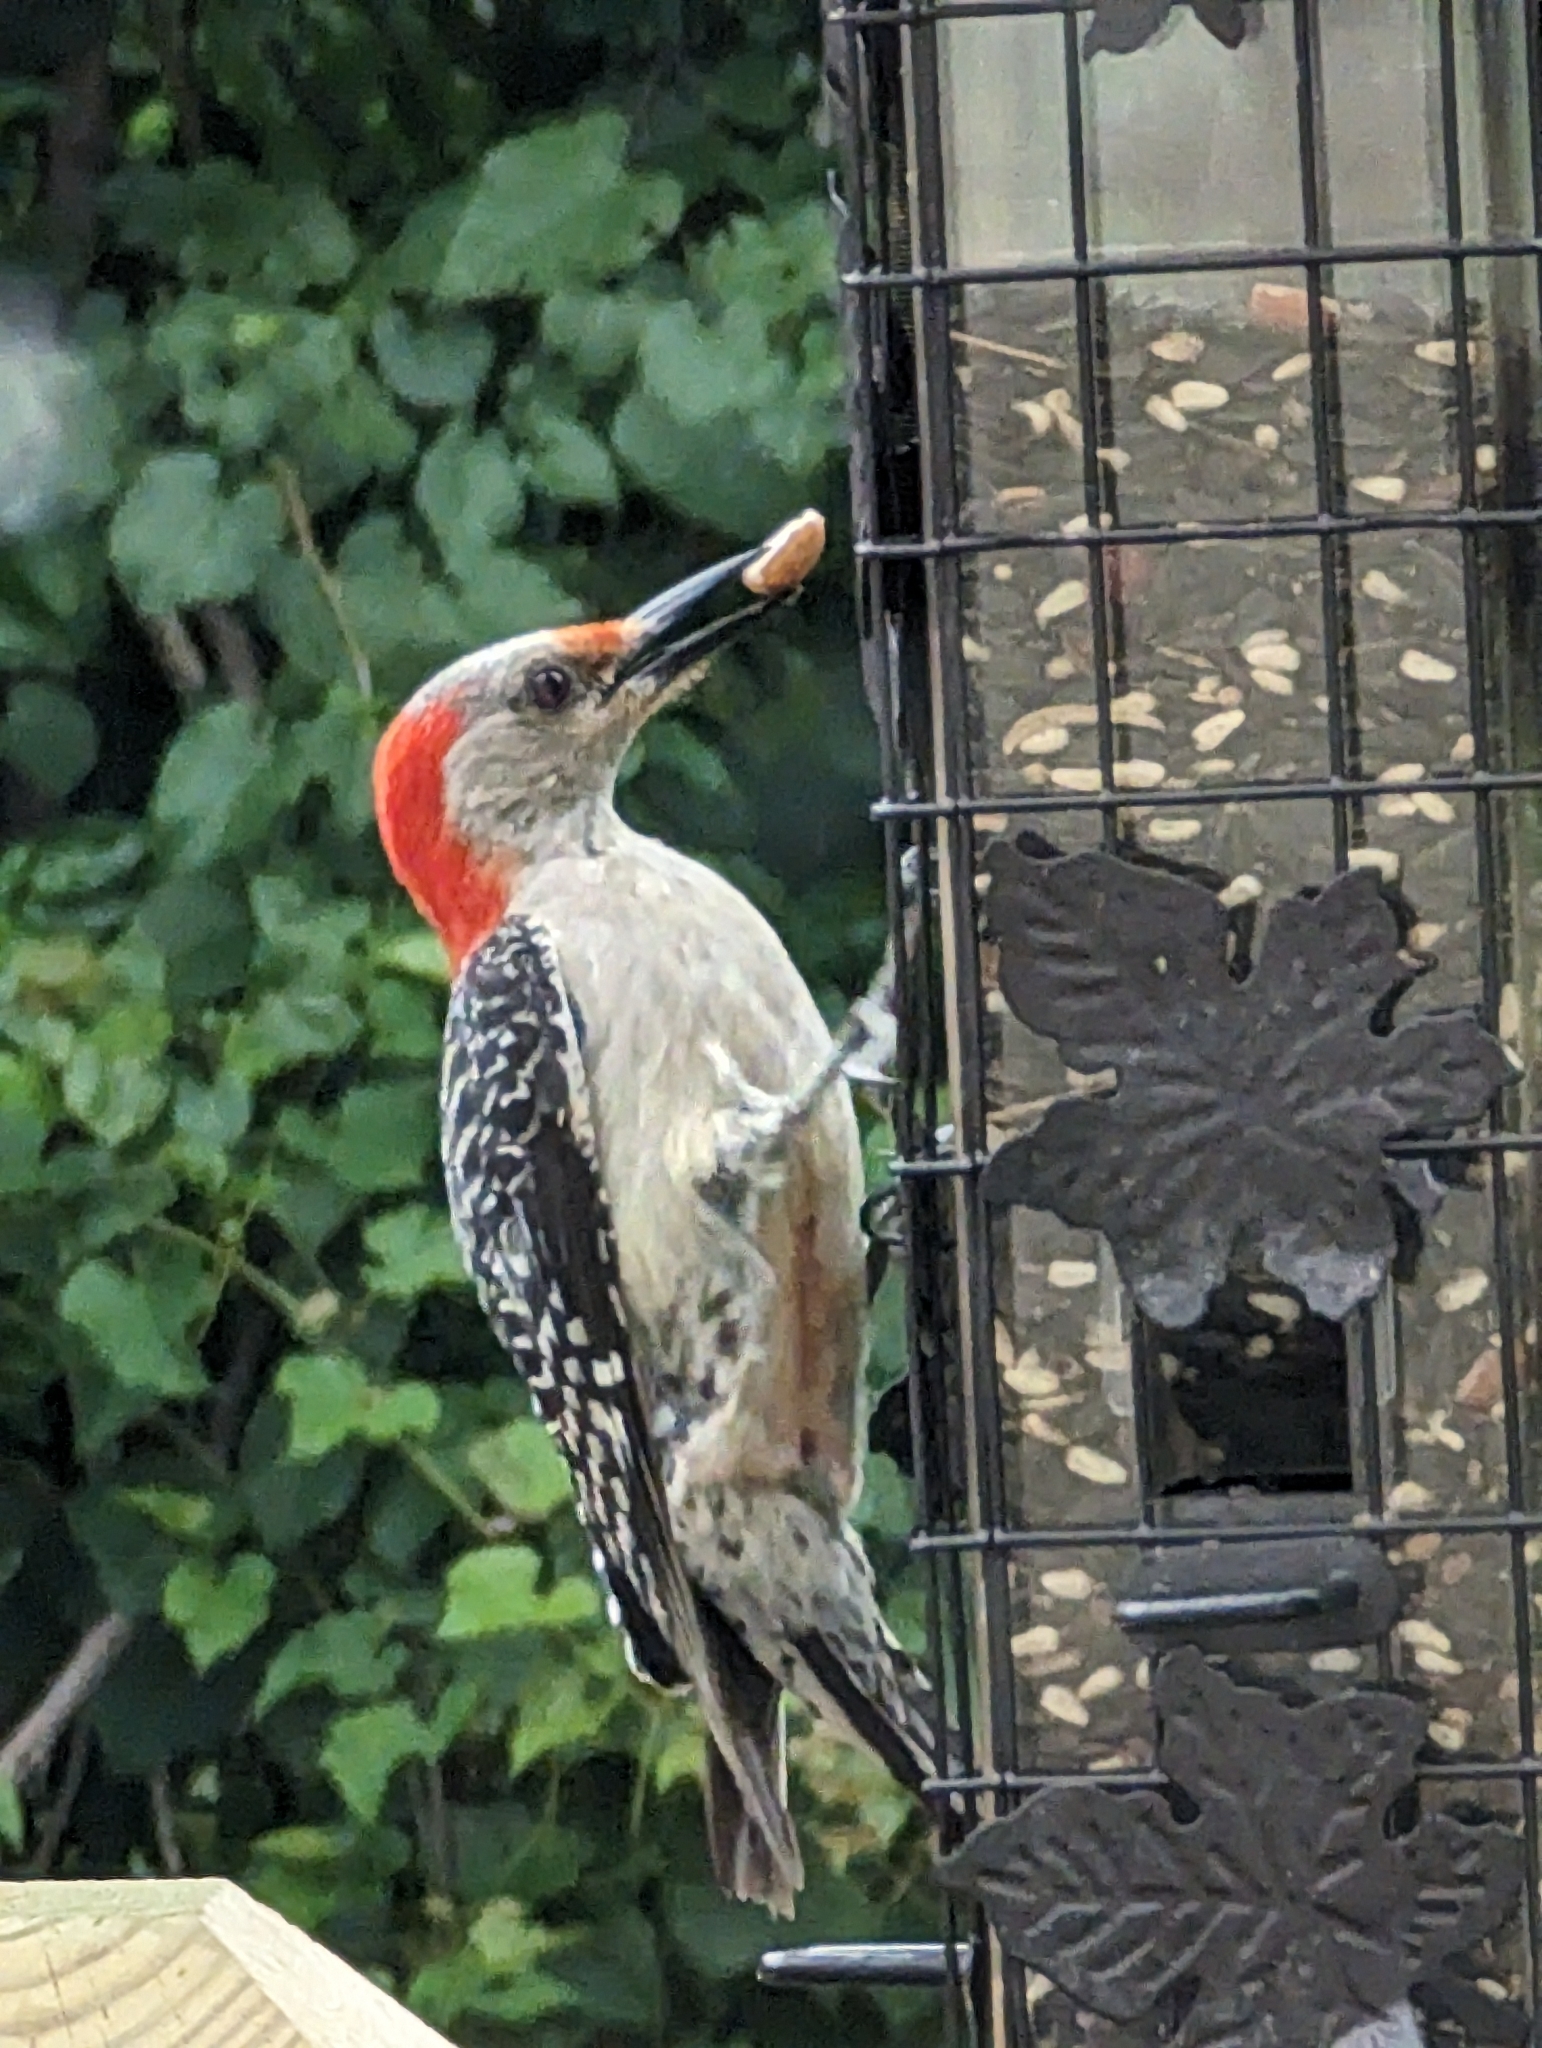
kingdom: Animalia
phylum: Chordata
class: Aves
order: Piciformes
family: Picidae
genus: Melanerpes
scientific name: Melanerpes carolinus
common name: Red-bellied woodpecker
